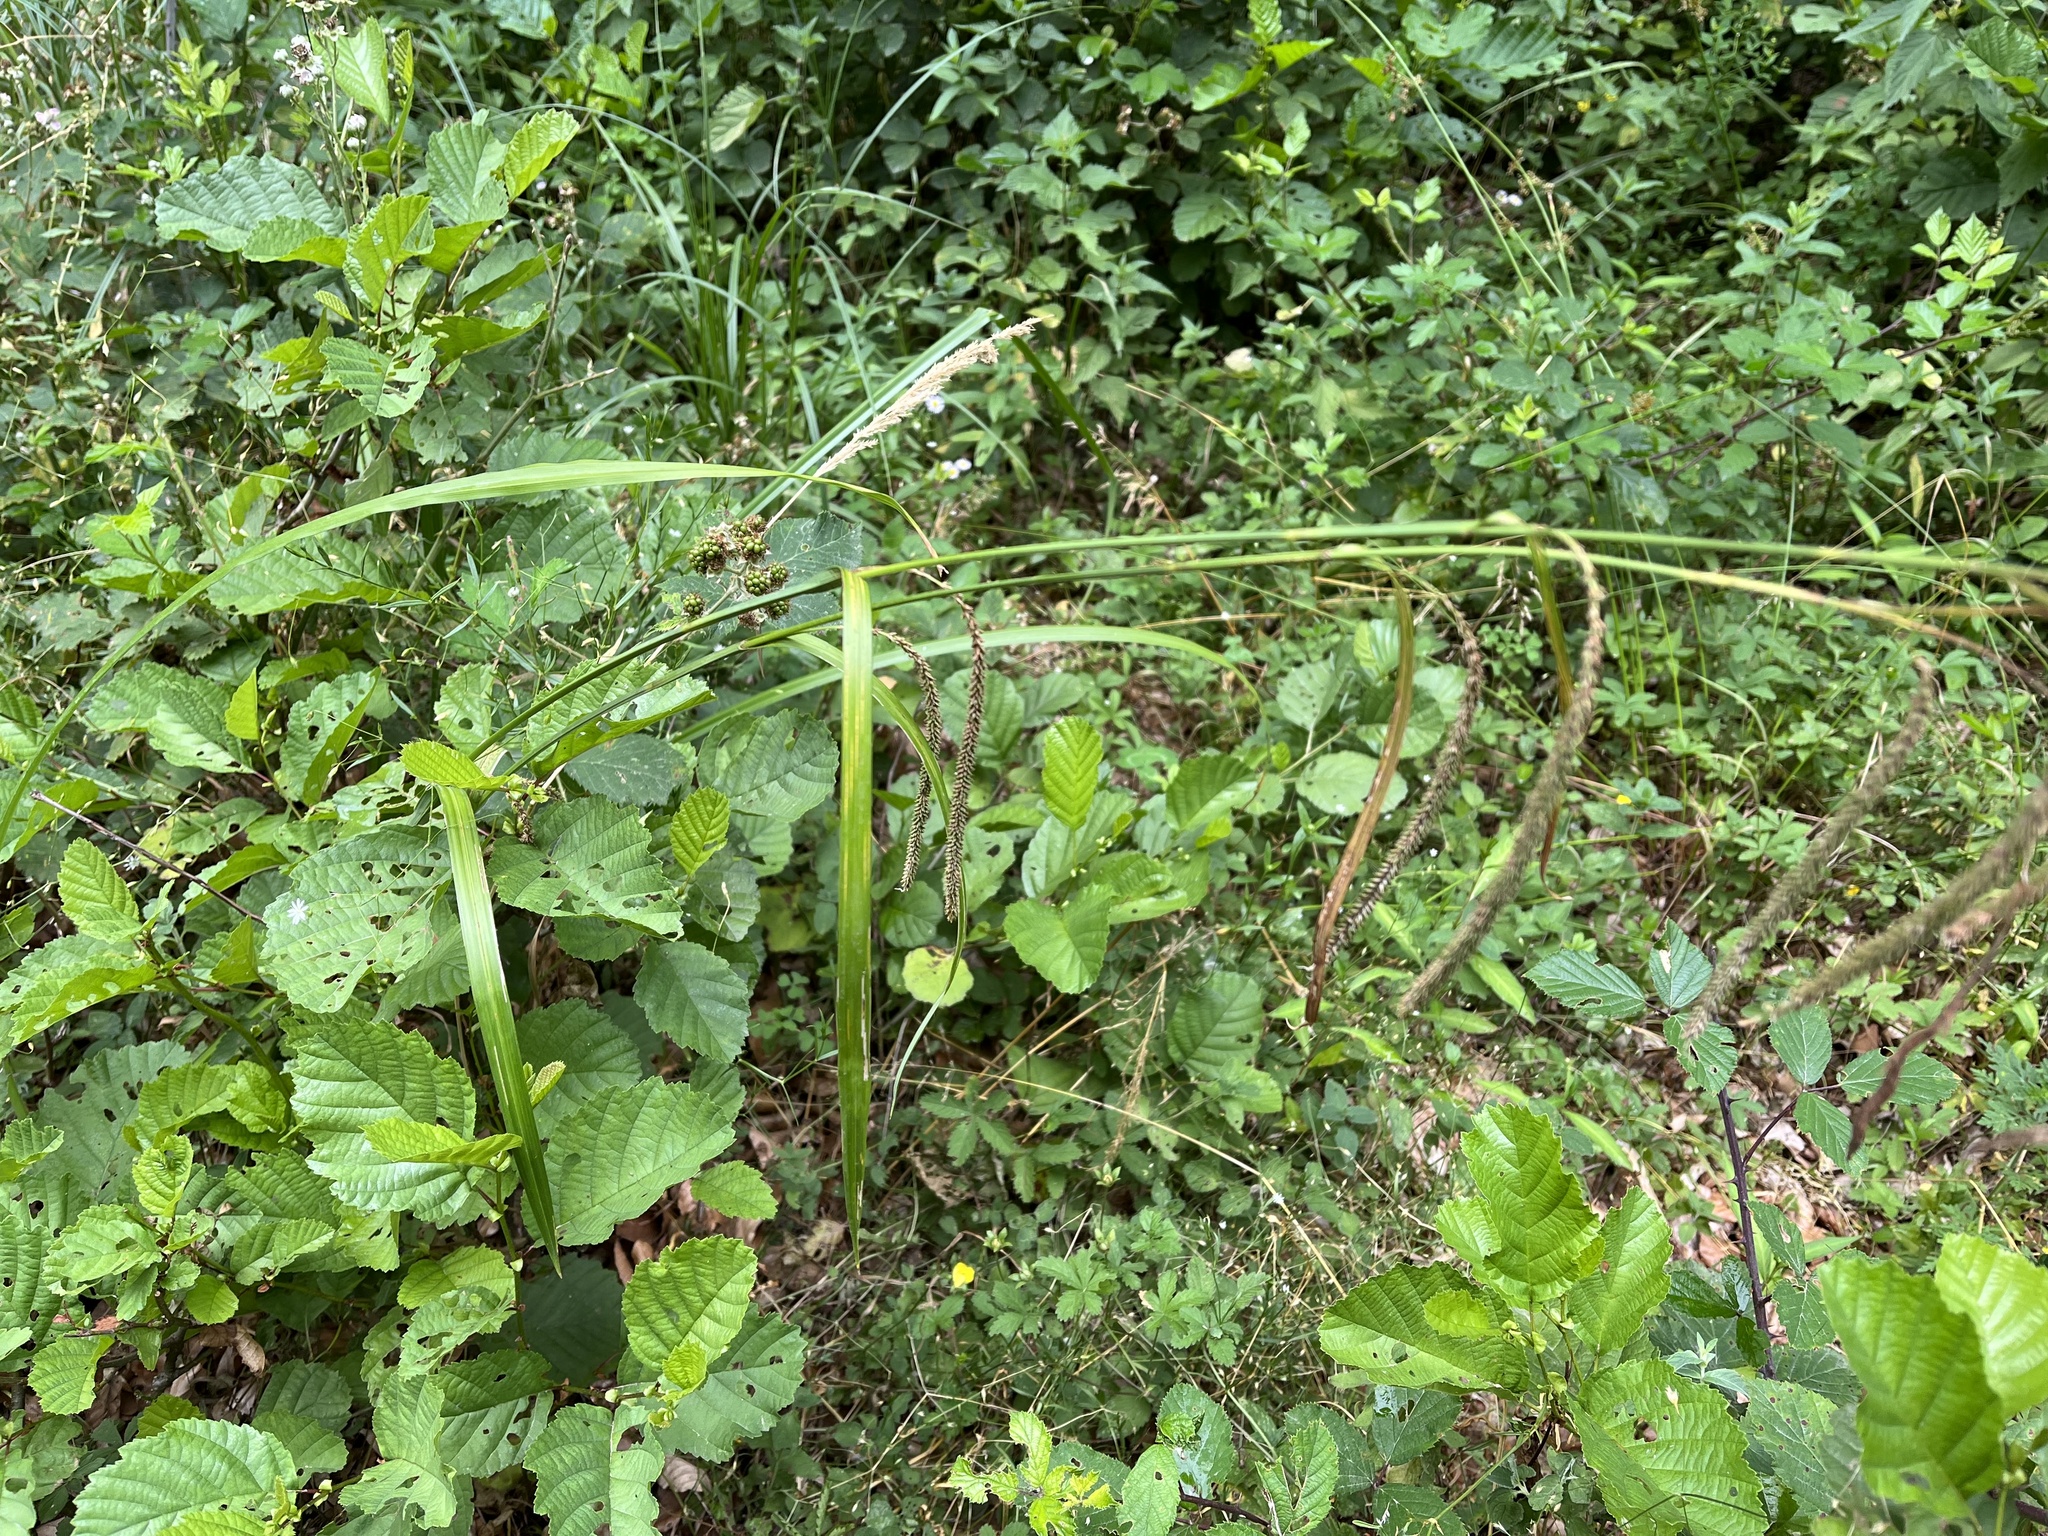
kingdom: Plantae
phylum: Tracheophyta
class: Liliopsida
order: Poales
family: Cyperaceae
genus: Carex
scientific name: Carex pendula
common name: Pendulous sedge
